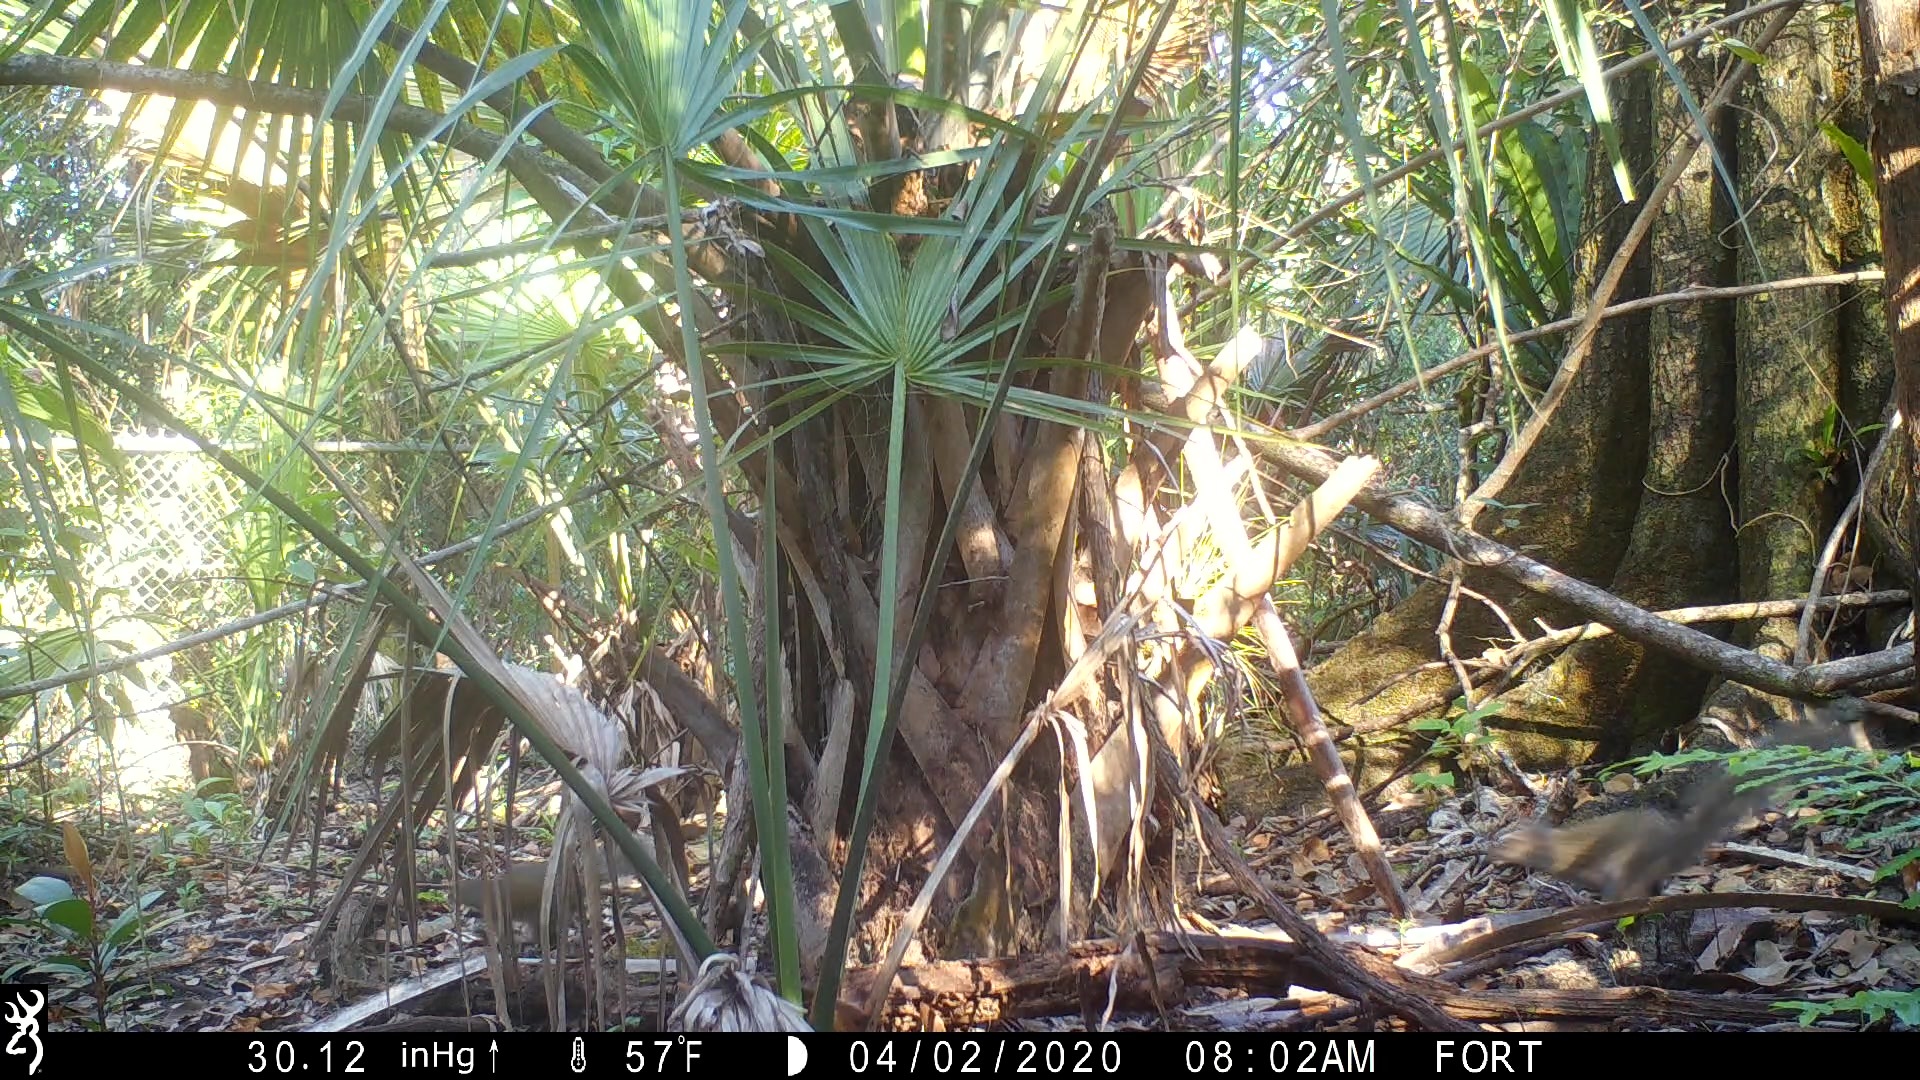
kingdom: Animalia
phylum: Chordata
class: Mammalia
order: Rodentia
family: Sciuridae
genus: Sciurus
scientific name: Sciurus carolinensis
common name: Eastern gray squirrel
